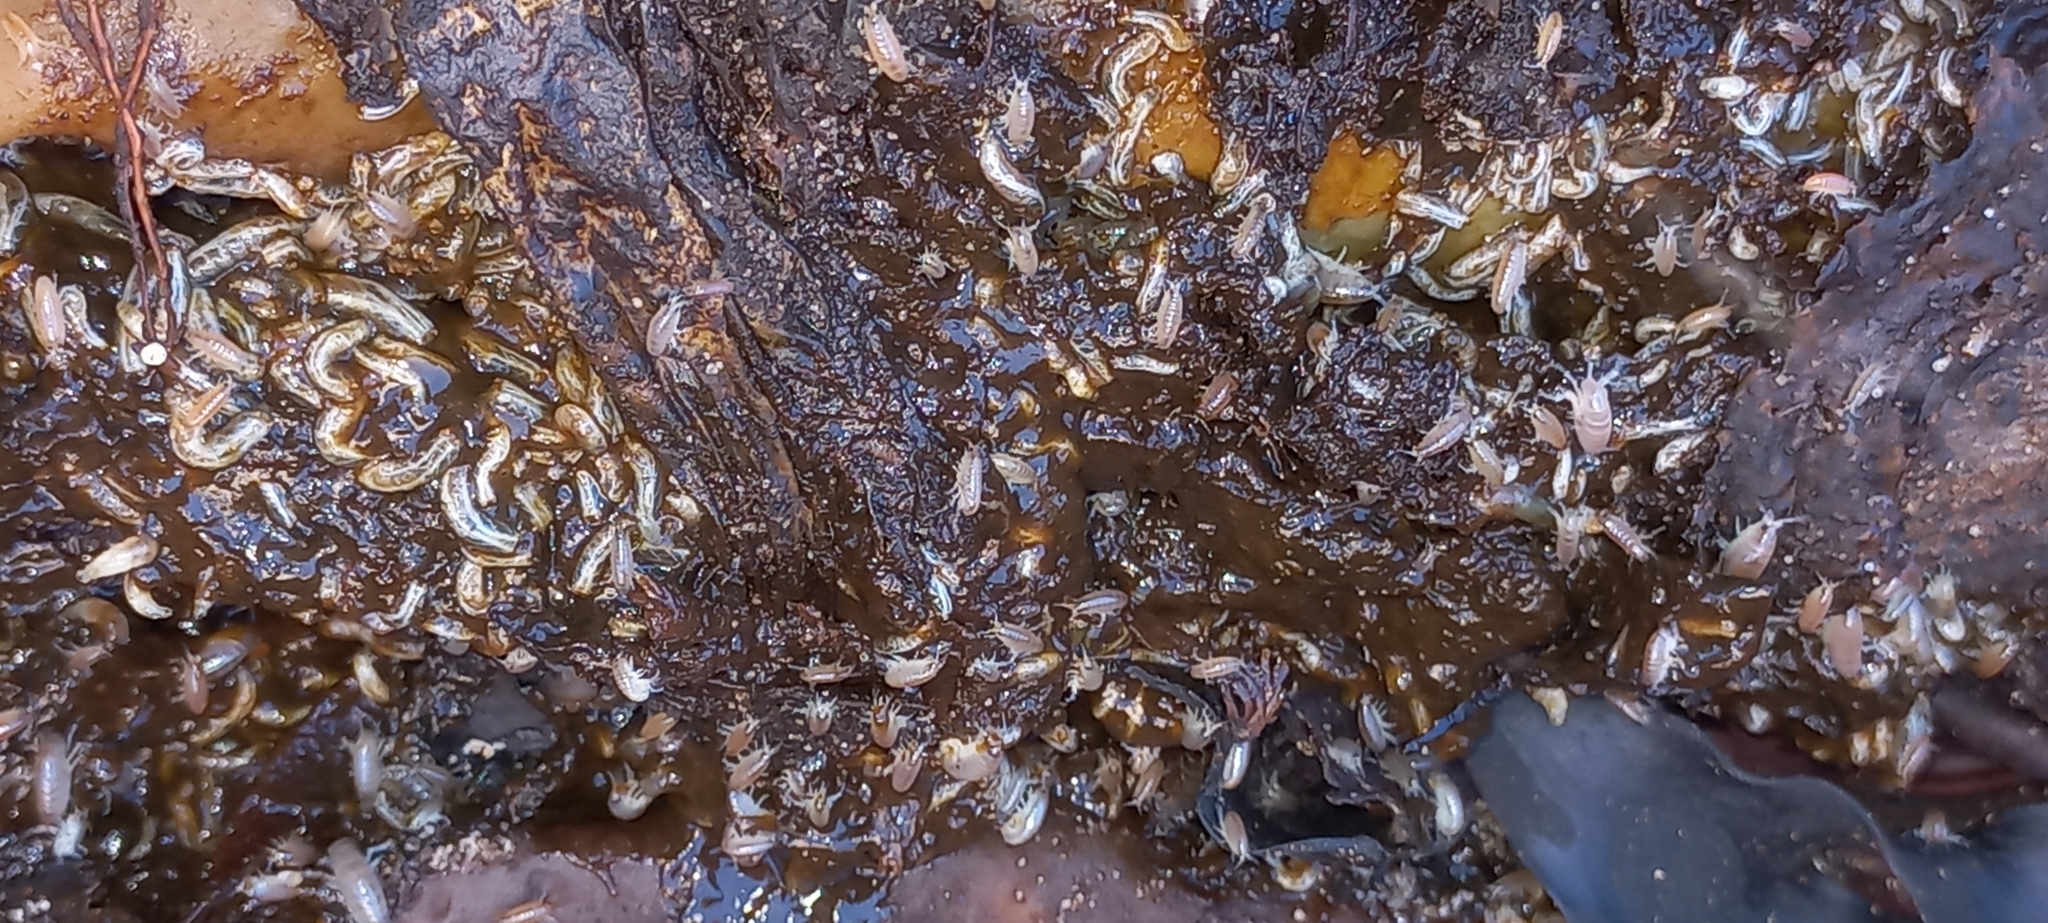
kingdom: Animalia
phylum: Arthropoda
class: Malacostraca
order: Amphipoda
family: Talitridae
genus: Capeorchestia
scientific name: Capeorchestia capensis
